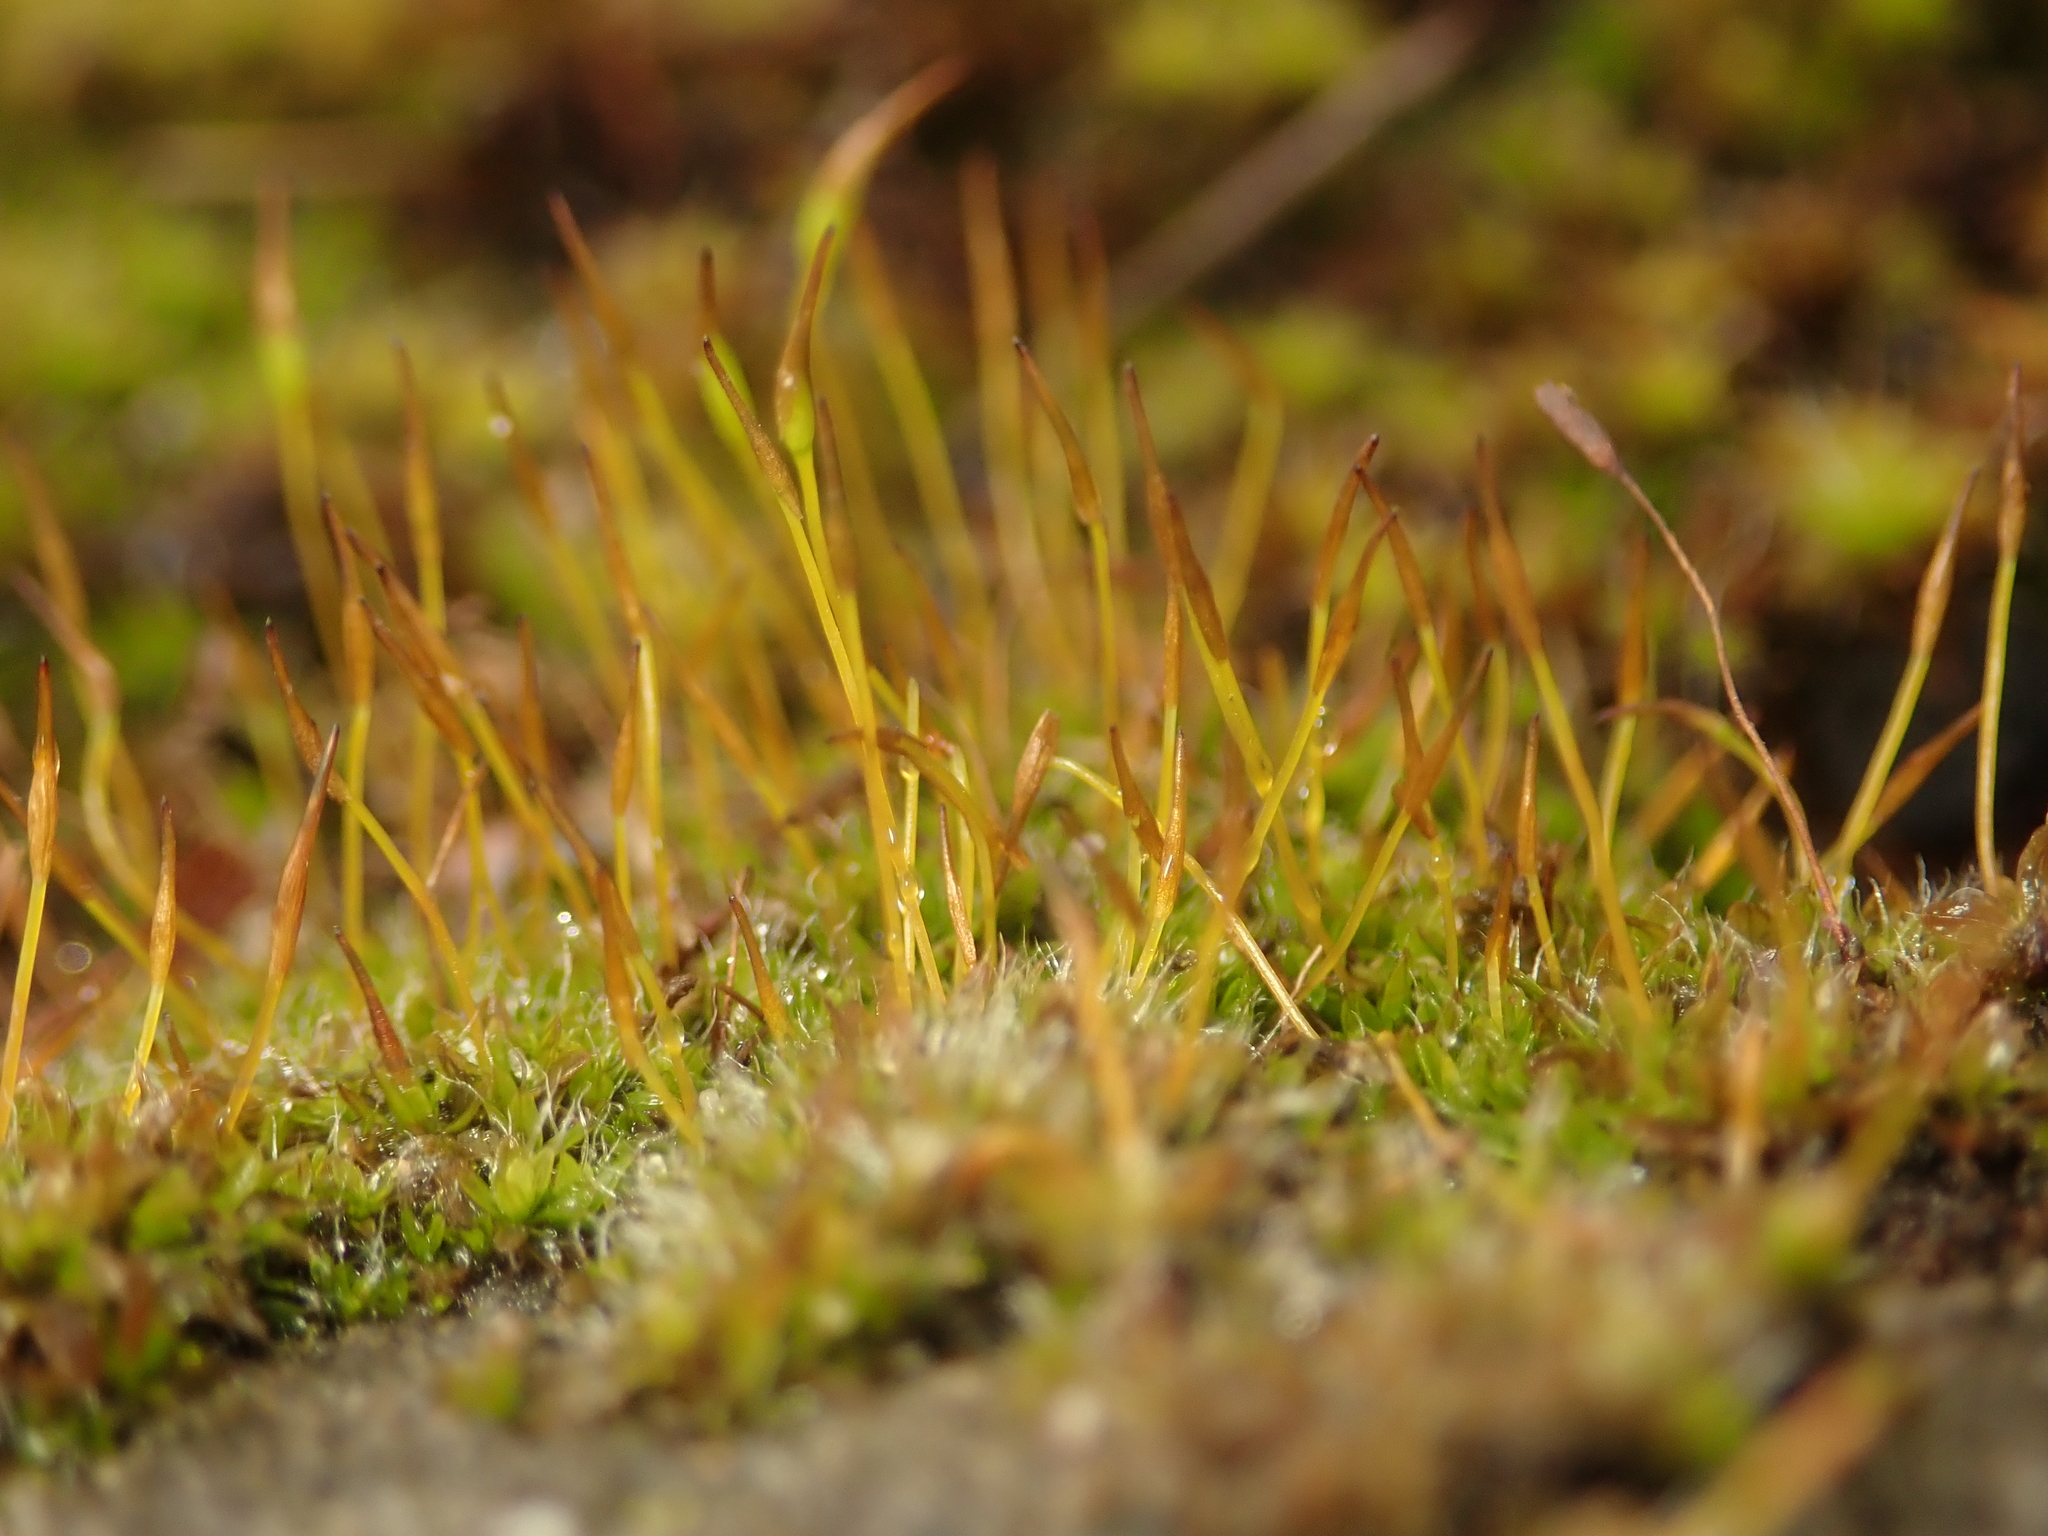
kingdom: Plantae
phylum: Bryophyta
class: Bryopsida
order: Pottiales
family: Pottiaceae
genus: Tortula
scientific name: Tortula muralis
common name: Wall screw-moss
